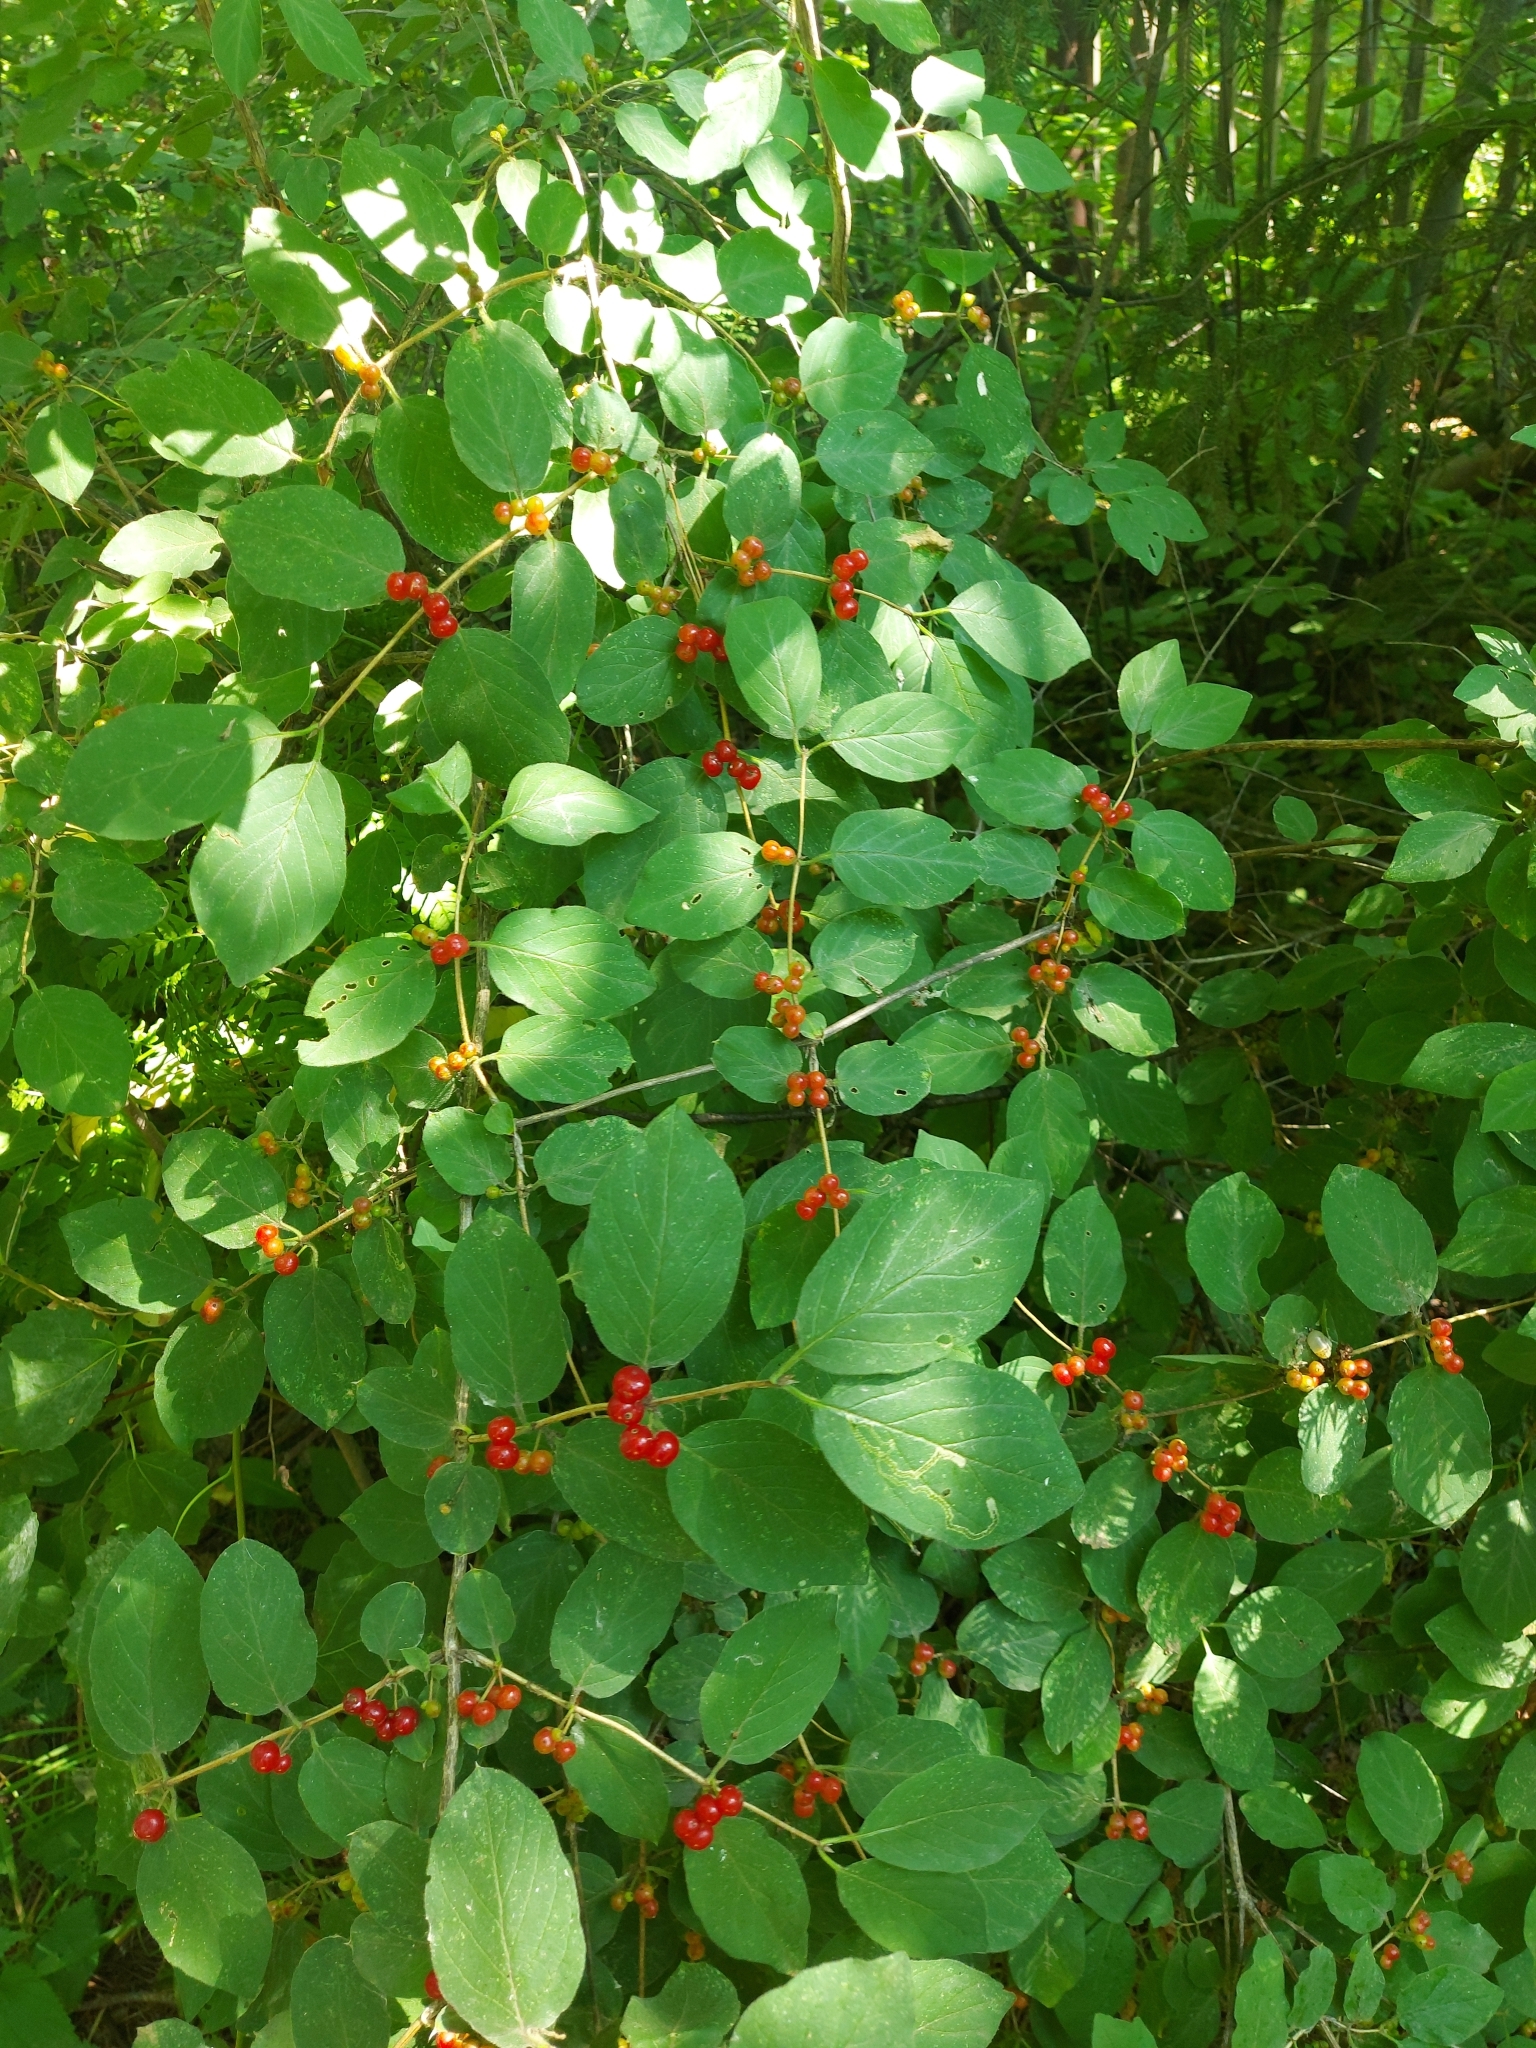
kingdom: Plantae
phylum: Tracheophyta
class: Magnoliopsida
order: Dipsacales
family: Caprifoliaceae
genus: Lonicera
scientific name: Lonicera xylosteum
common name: Fly honeysuckle
